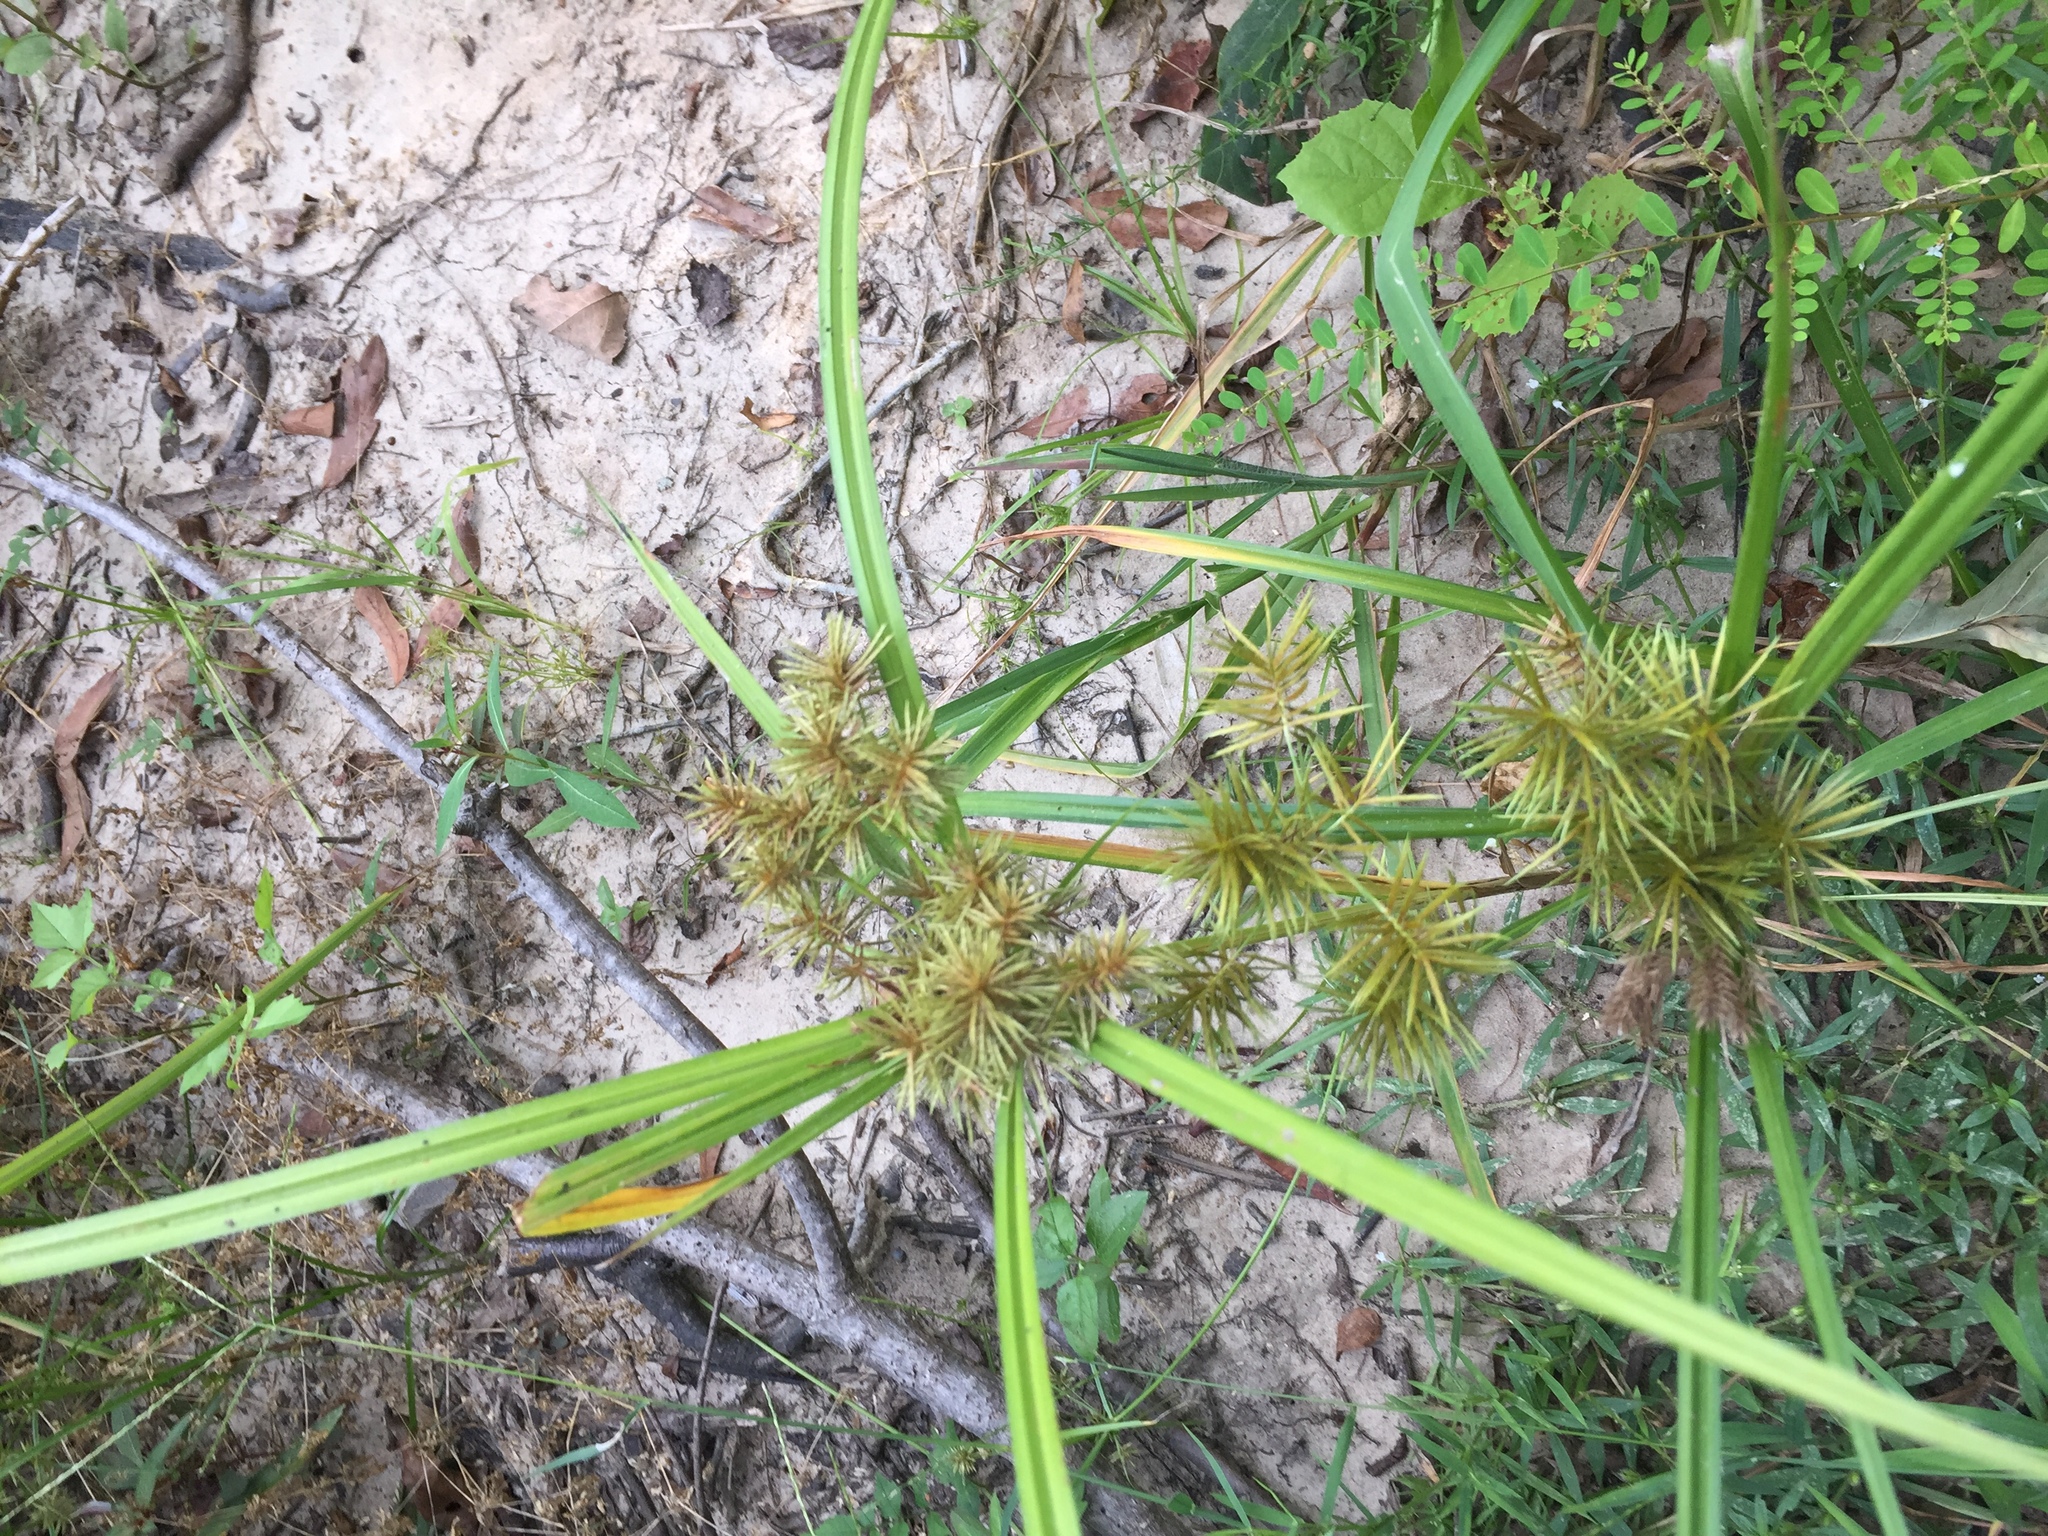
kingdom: Plantae
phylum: Tracheophyta
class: Liliopsida
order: Poales
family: Cyperaceae
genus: Cyperus
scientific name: Cyperus strigosus
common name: False nutsedge
